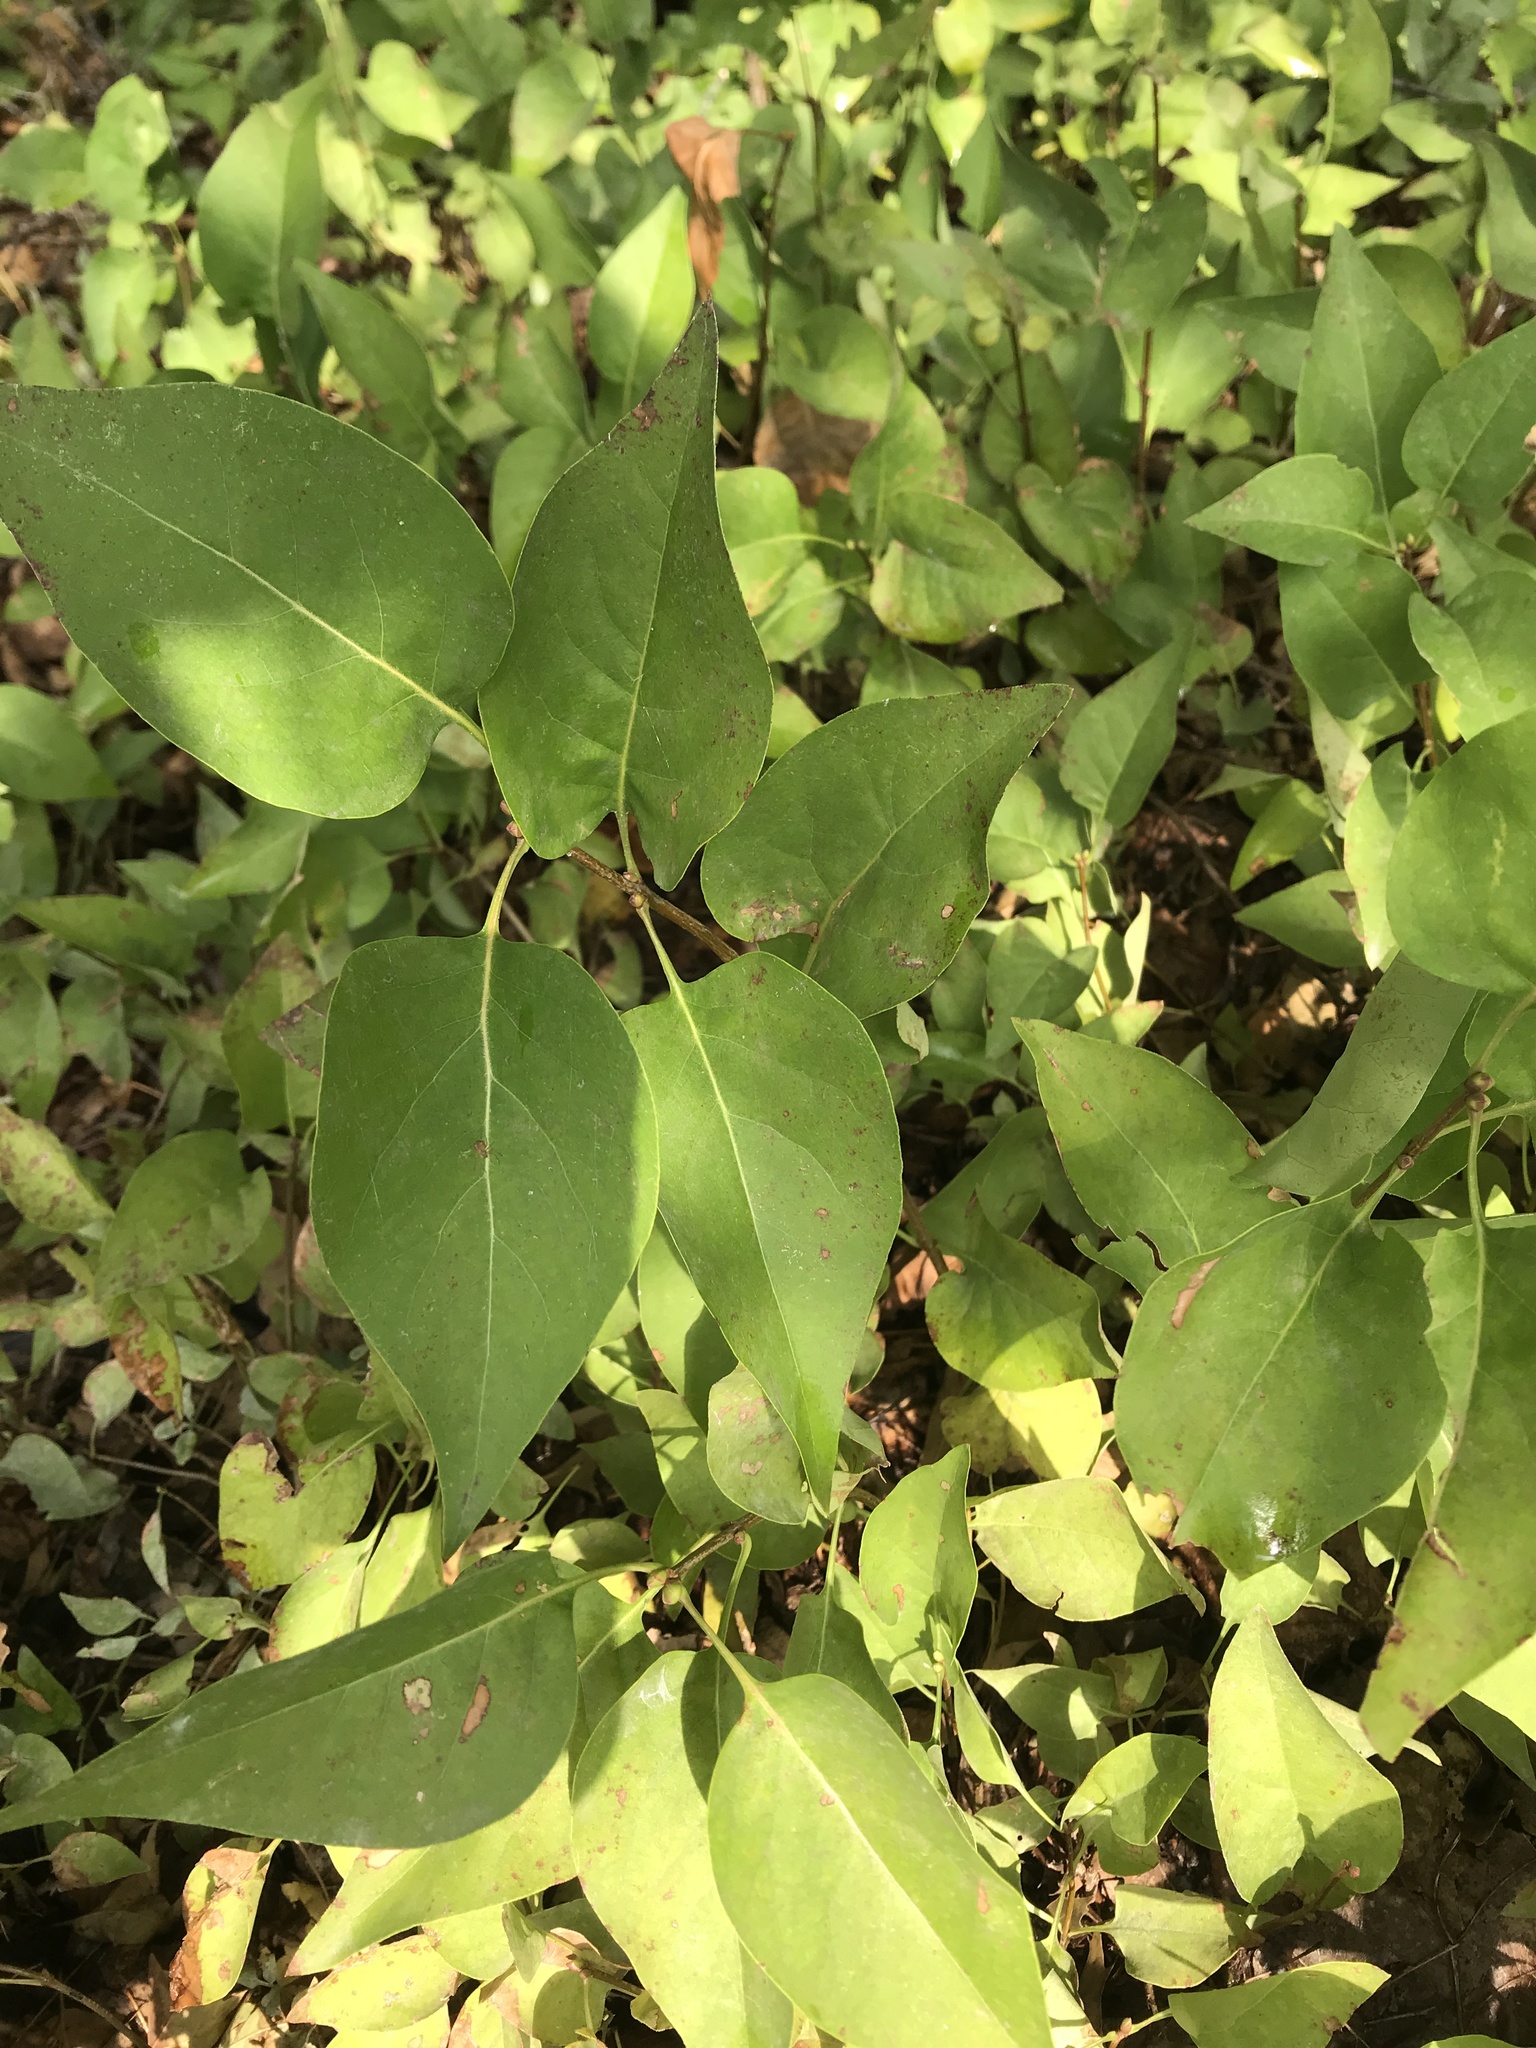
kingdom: Plantae
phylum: Tracheophyta
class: Magnoliopsida
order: Lamiales
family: Oleaceae
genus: Syringa
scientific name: Syringa vulgaris
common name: Common lilac
